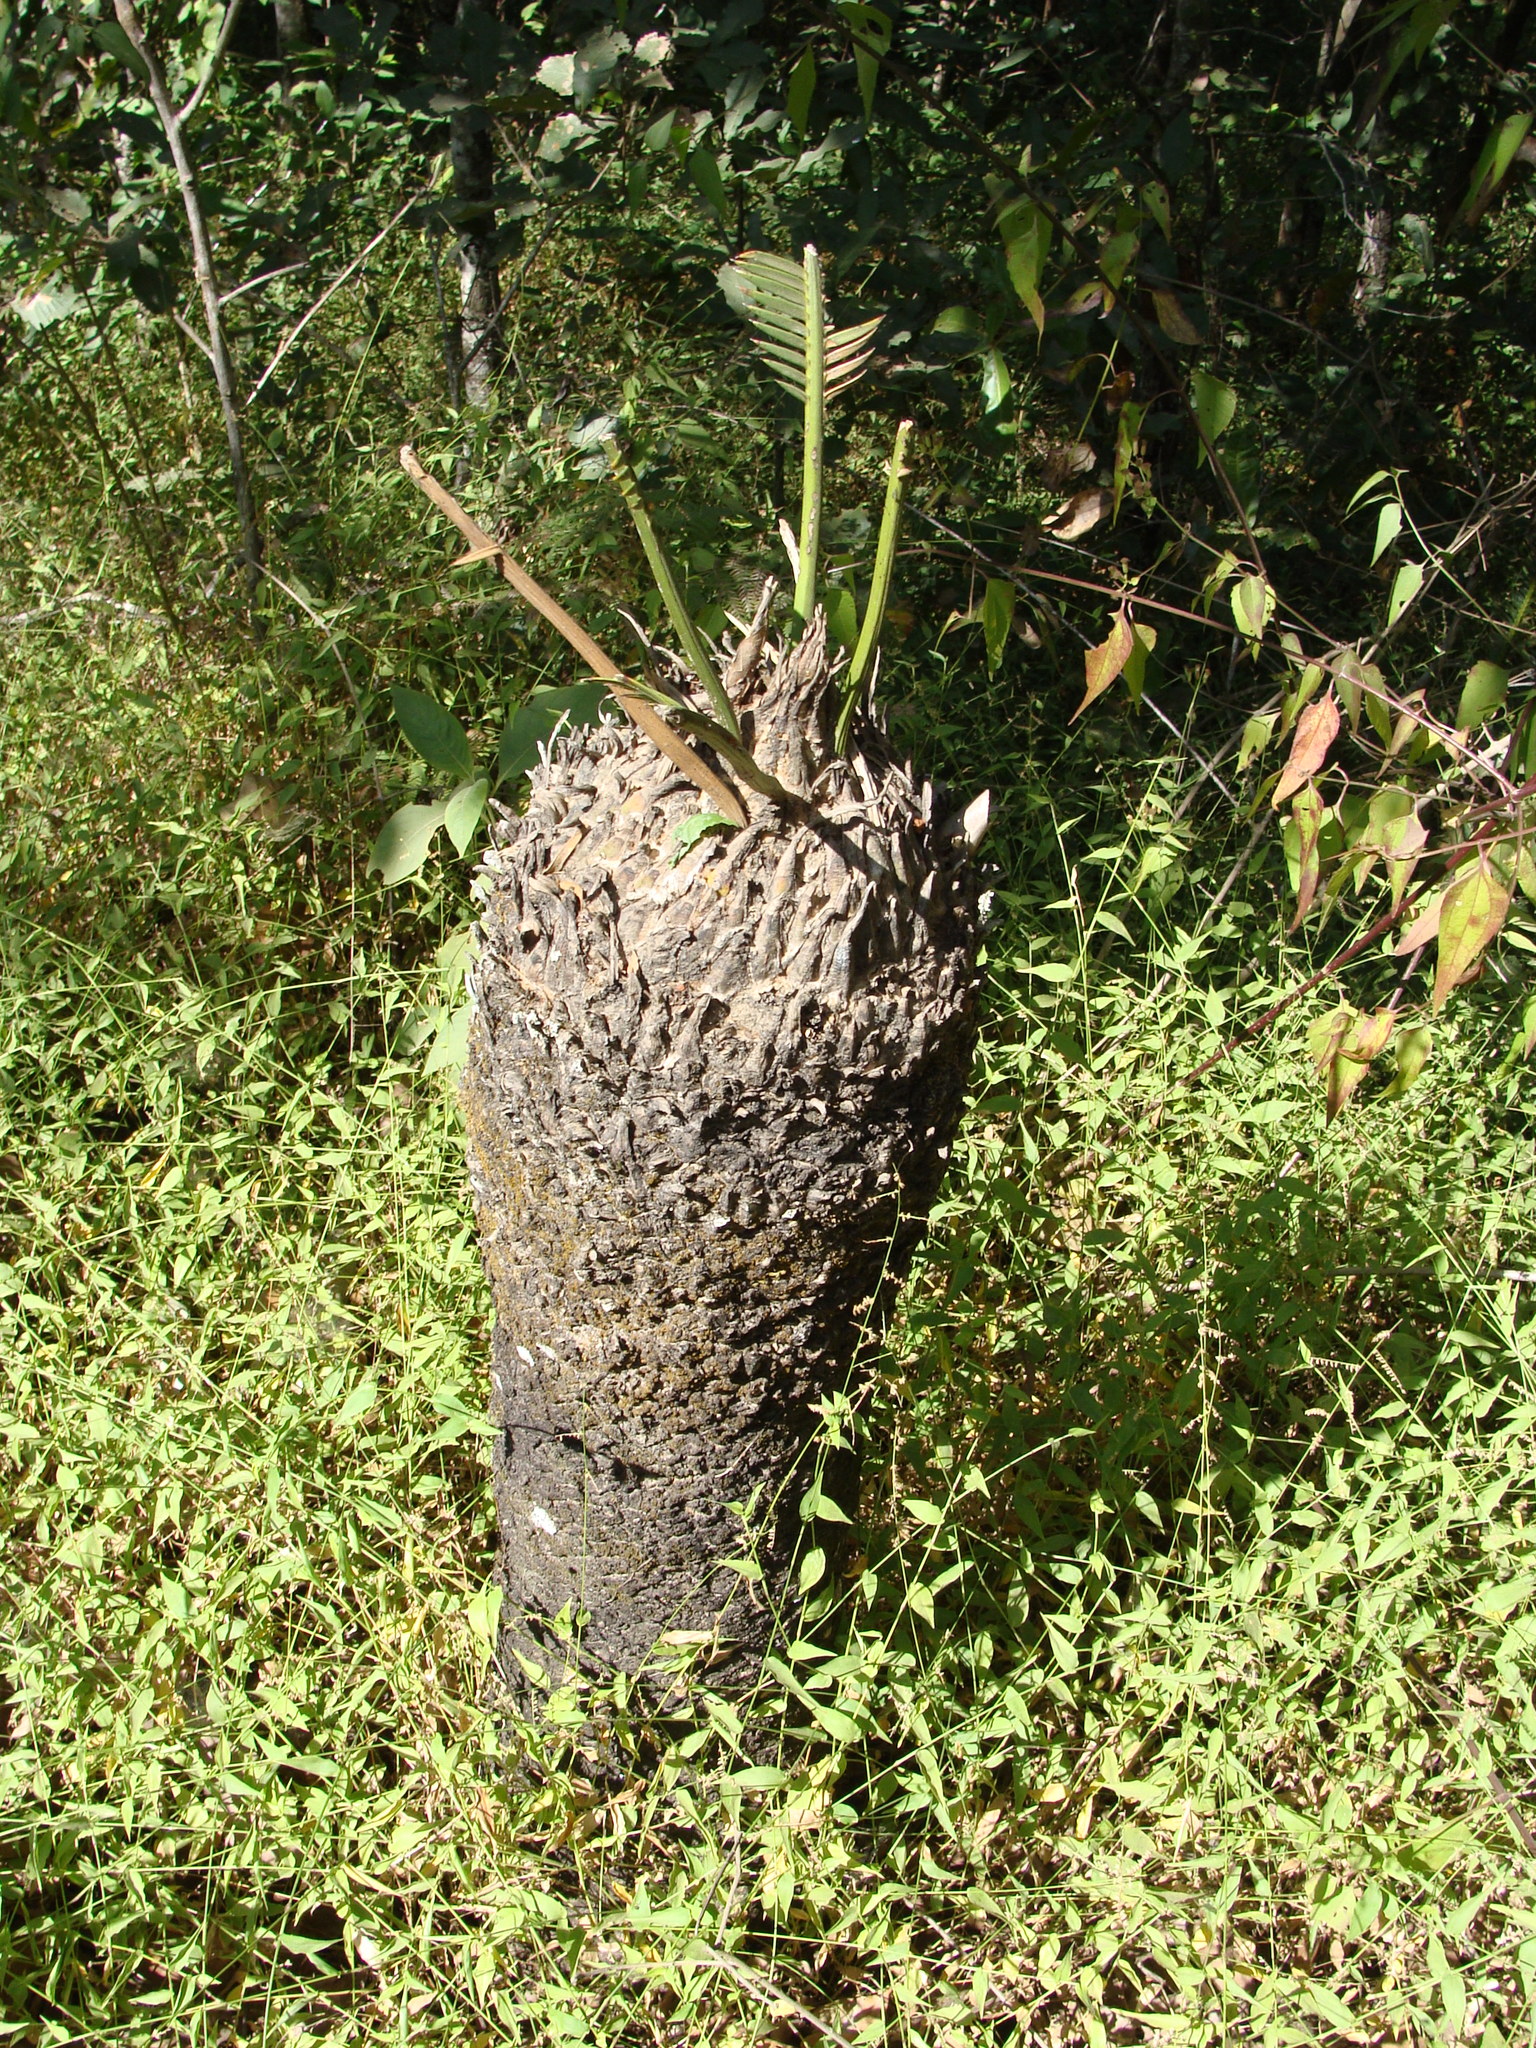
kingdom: Plantae
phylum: Tracheophyta
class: Cycadopsida
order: Cycadales
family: Zamiaceae
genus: Dioon
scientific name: Dioon holmgrenii
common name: Sun palm
